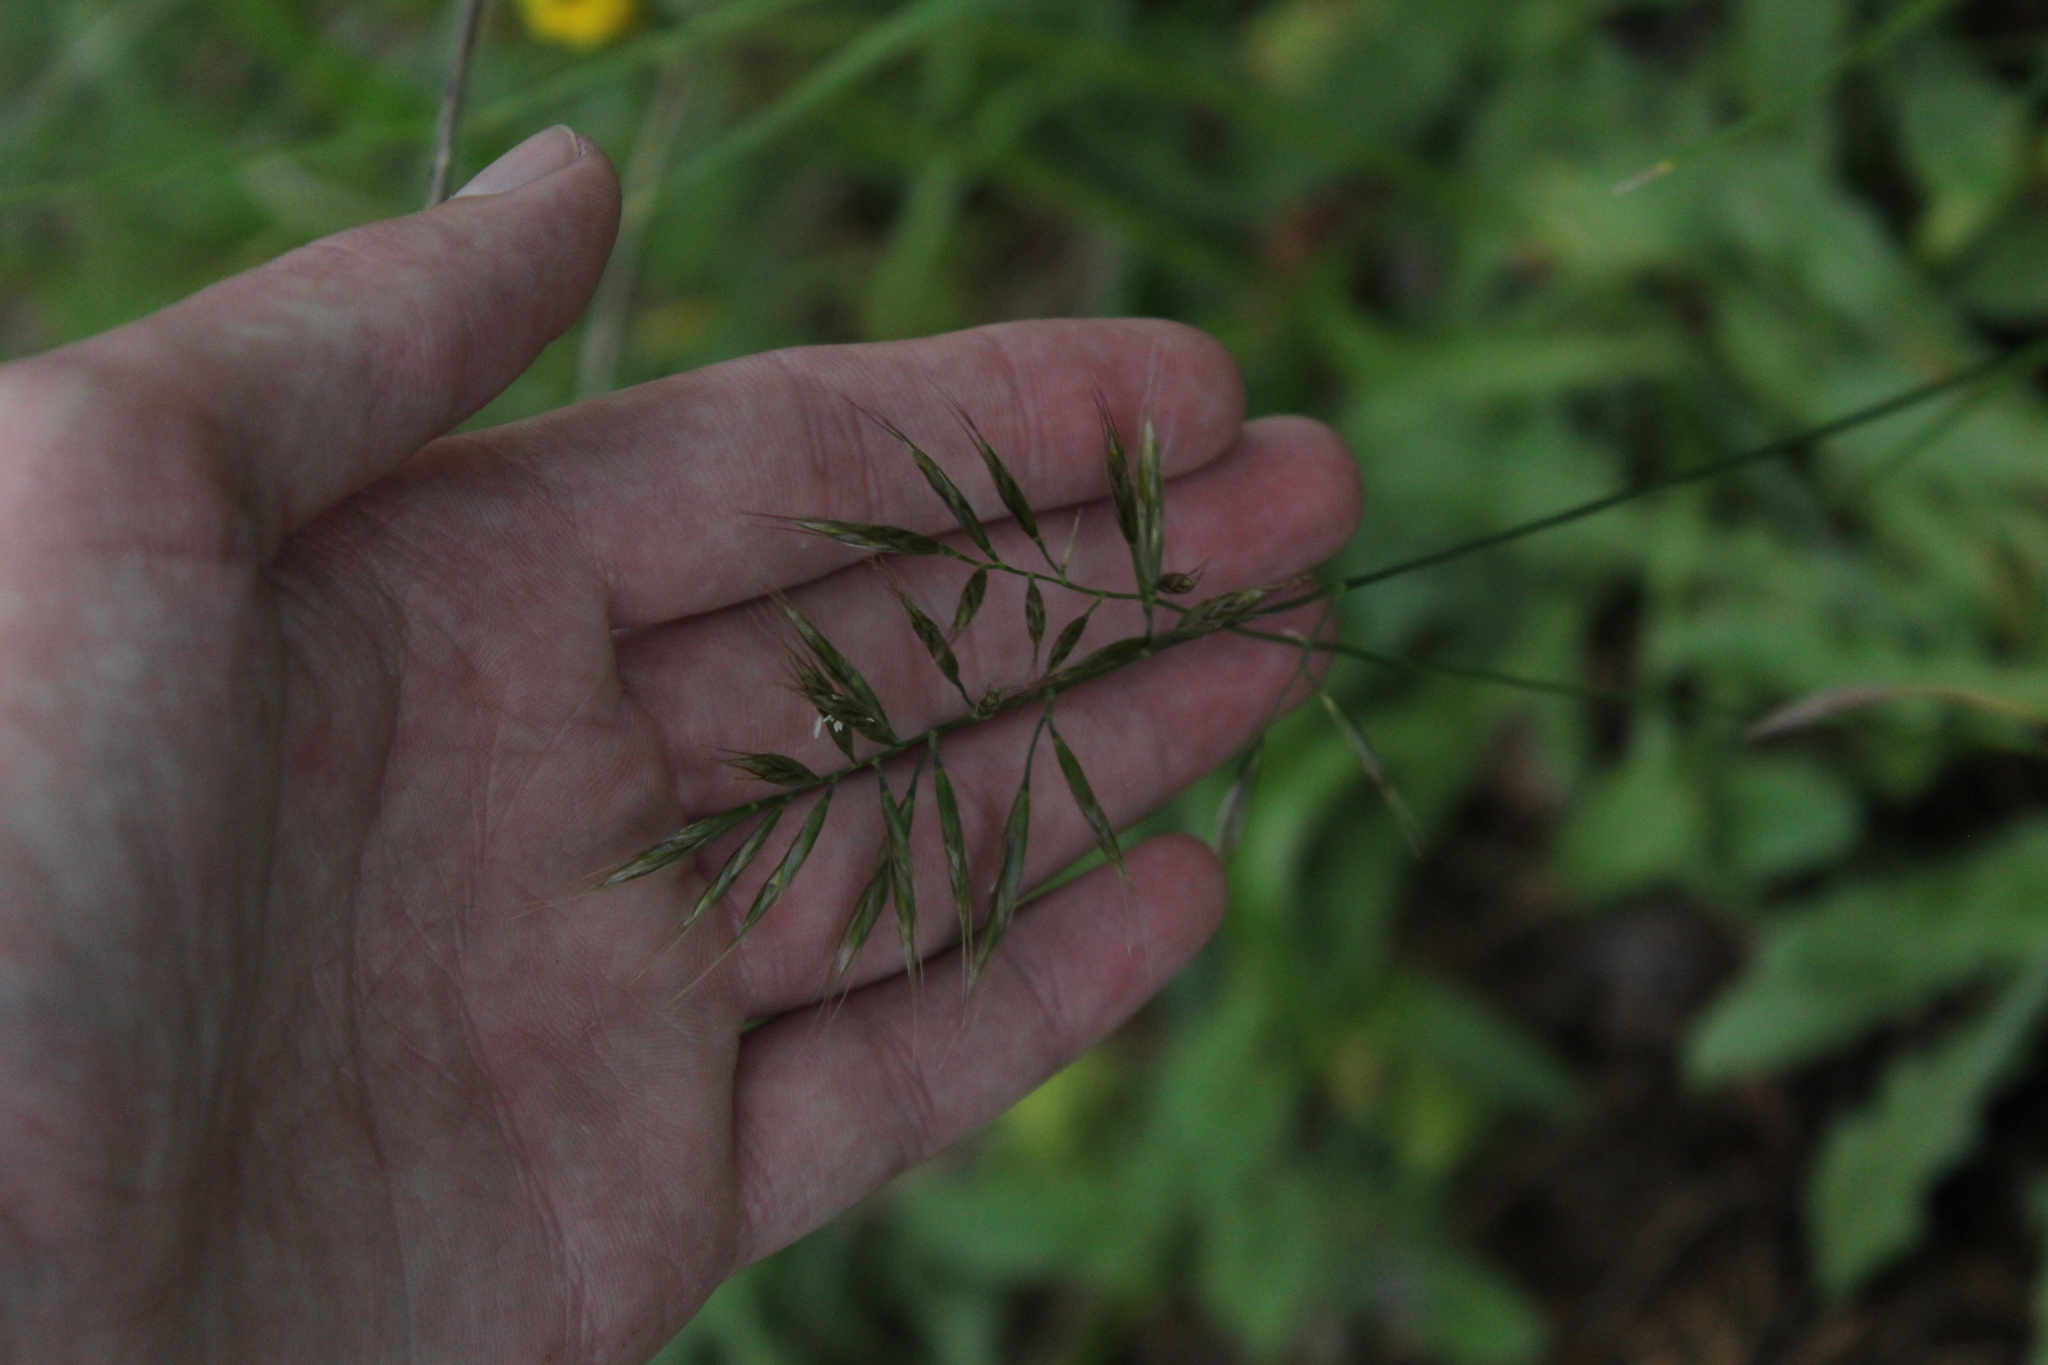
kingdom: Plantae
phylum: Tracheophyta
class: Liliopsida
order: Poales
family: Poaceae
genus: Helictochloa
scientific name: Helictochloa versicolor
